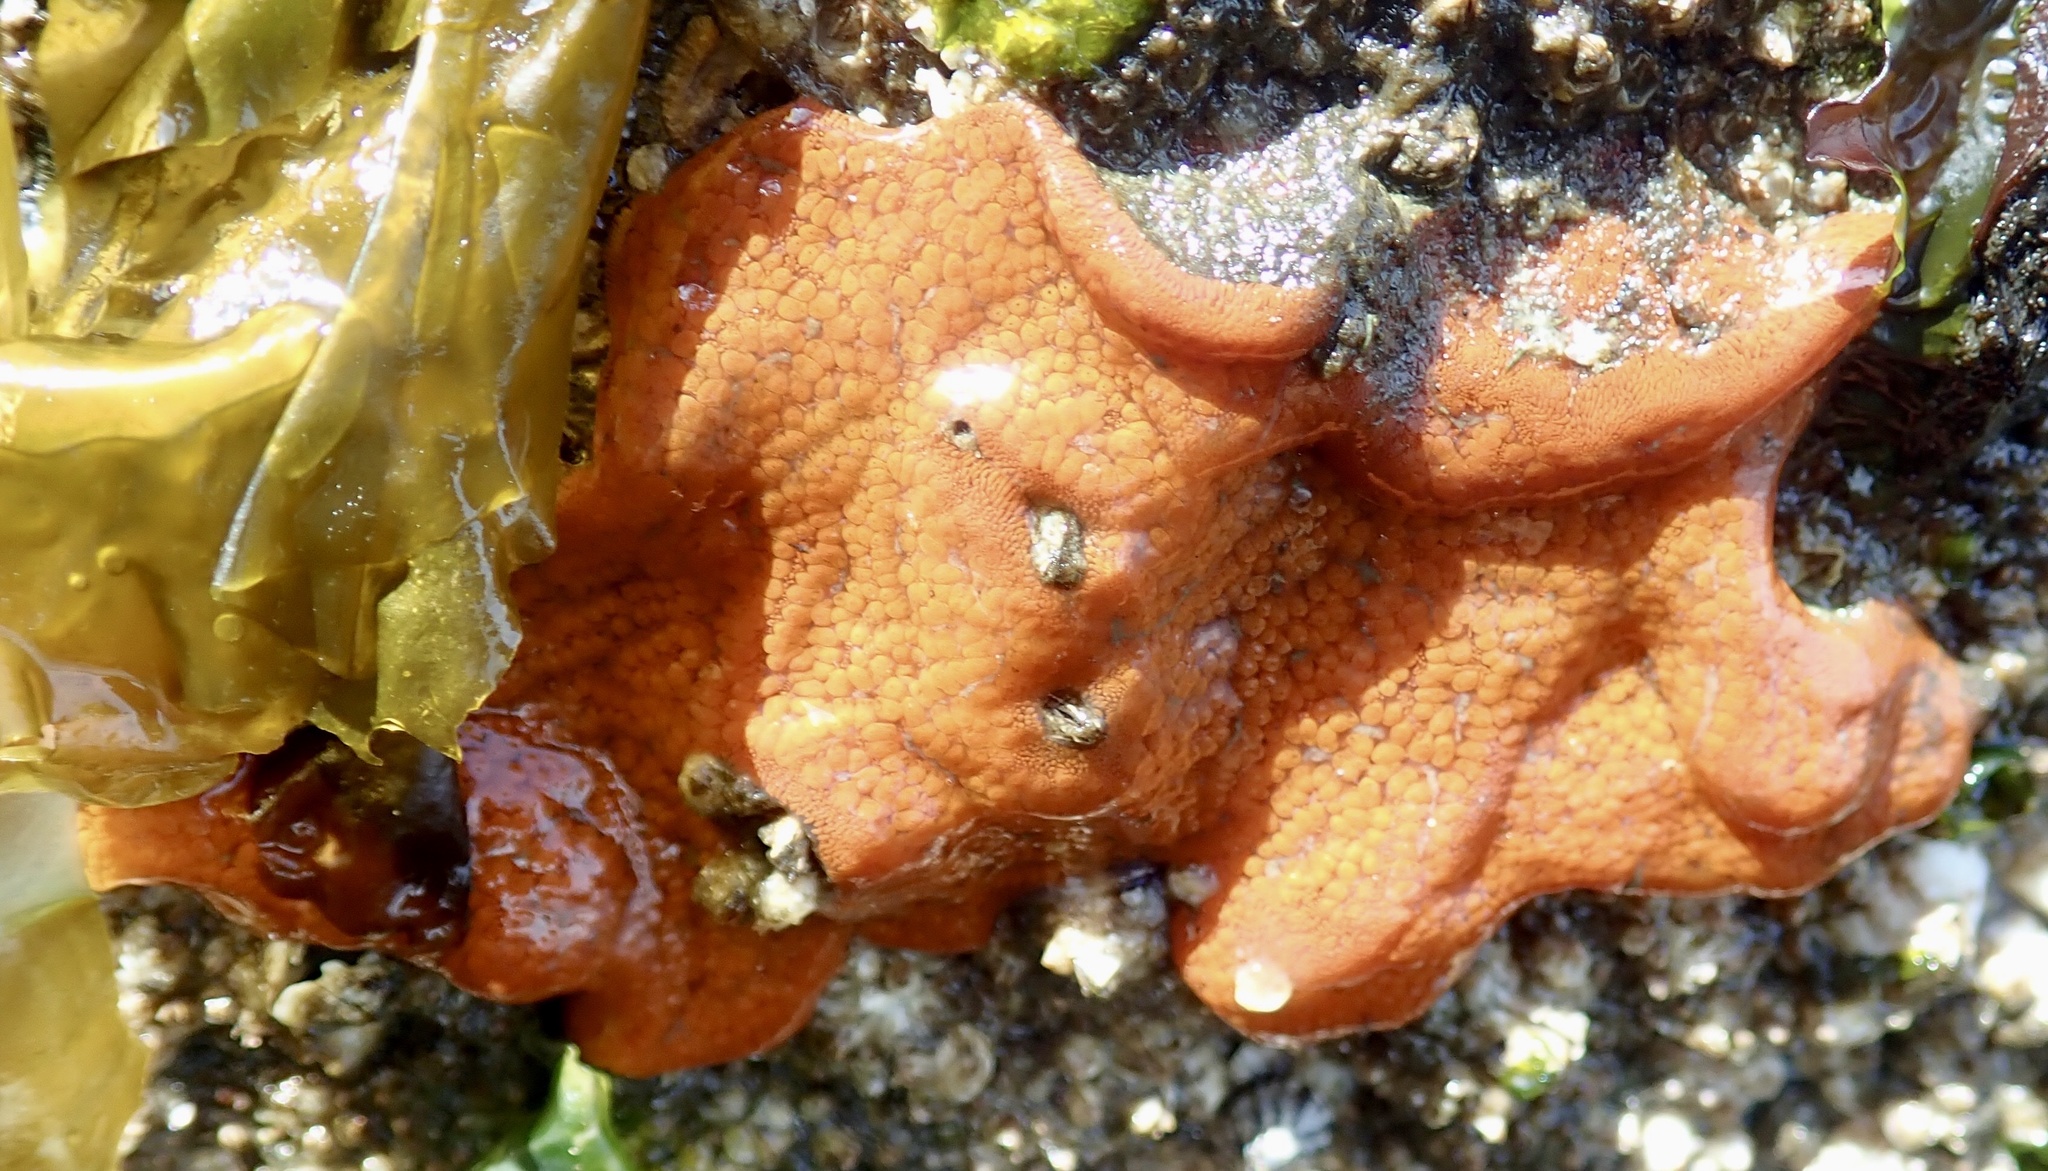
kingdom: Animalia
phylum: Chordata
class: Ascidiacea
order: Stolidobranchia
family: Styelidae
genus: Botrylloides
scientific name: Botrylloides violaceus
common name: Colonial sea squirt
